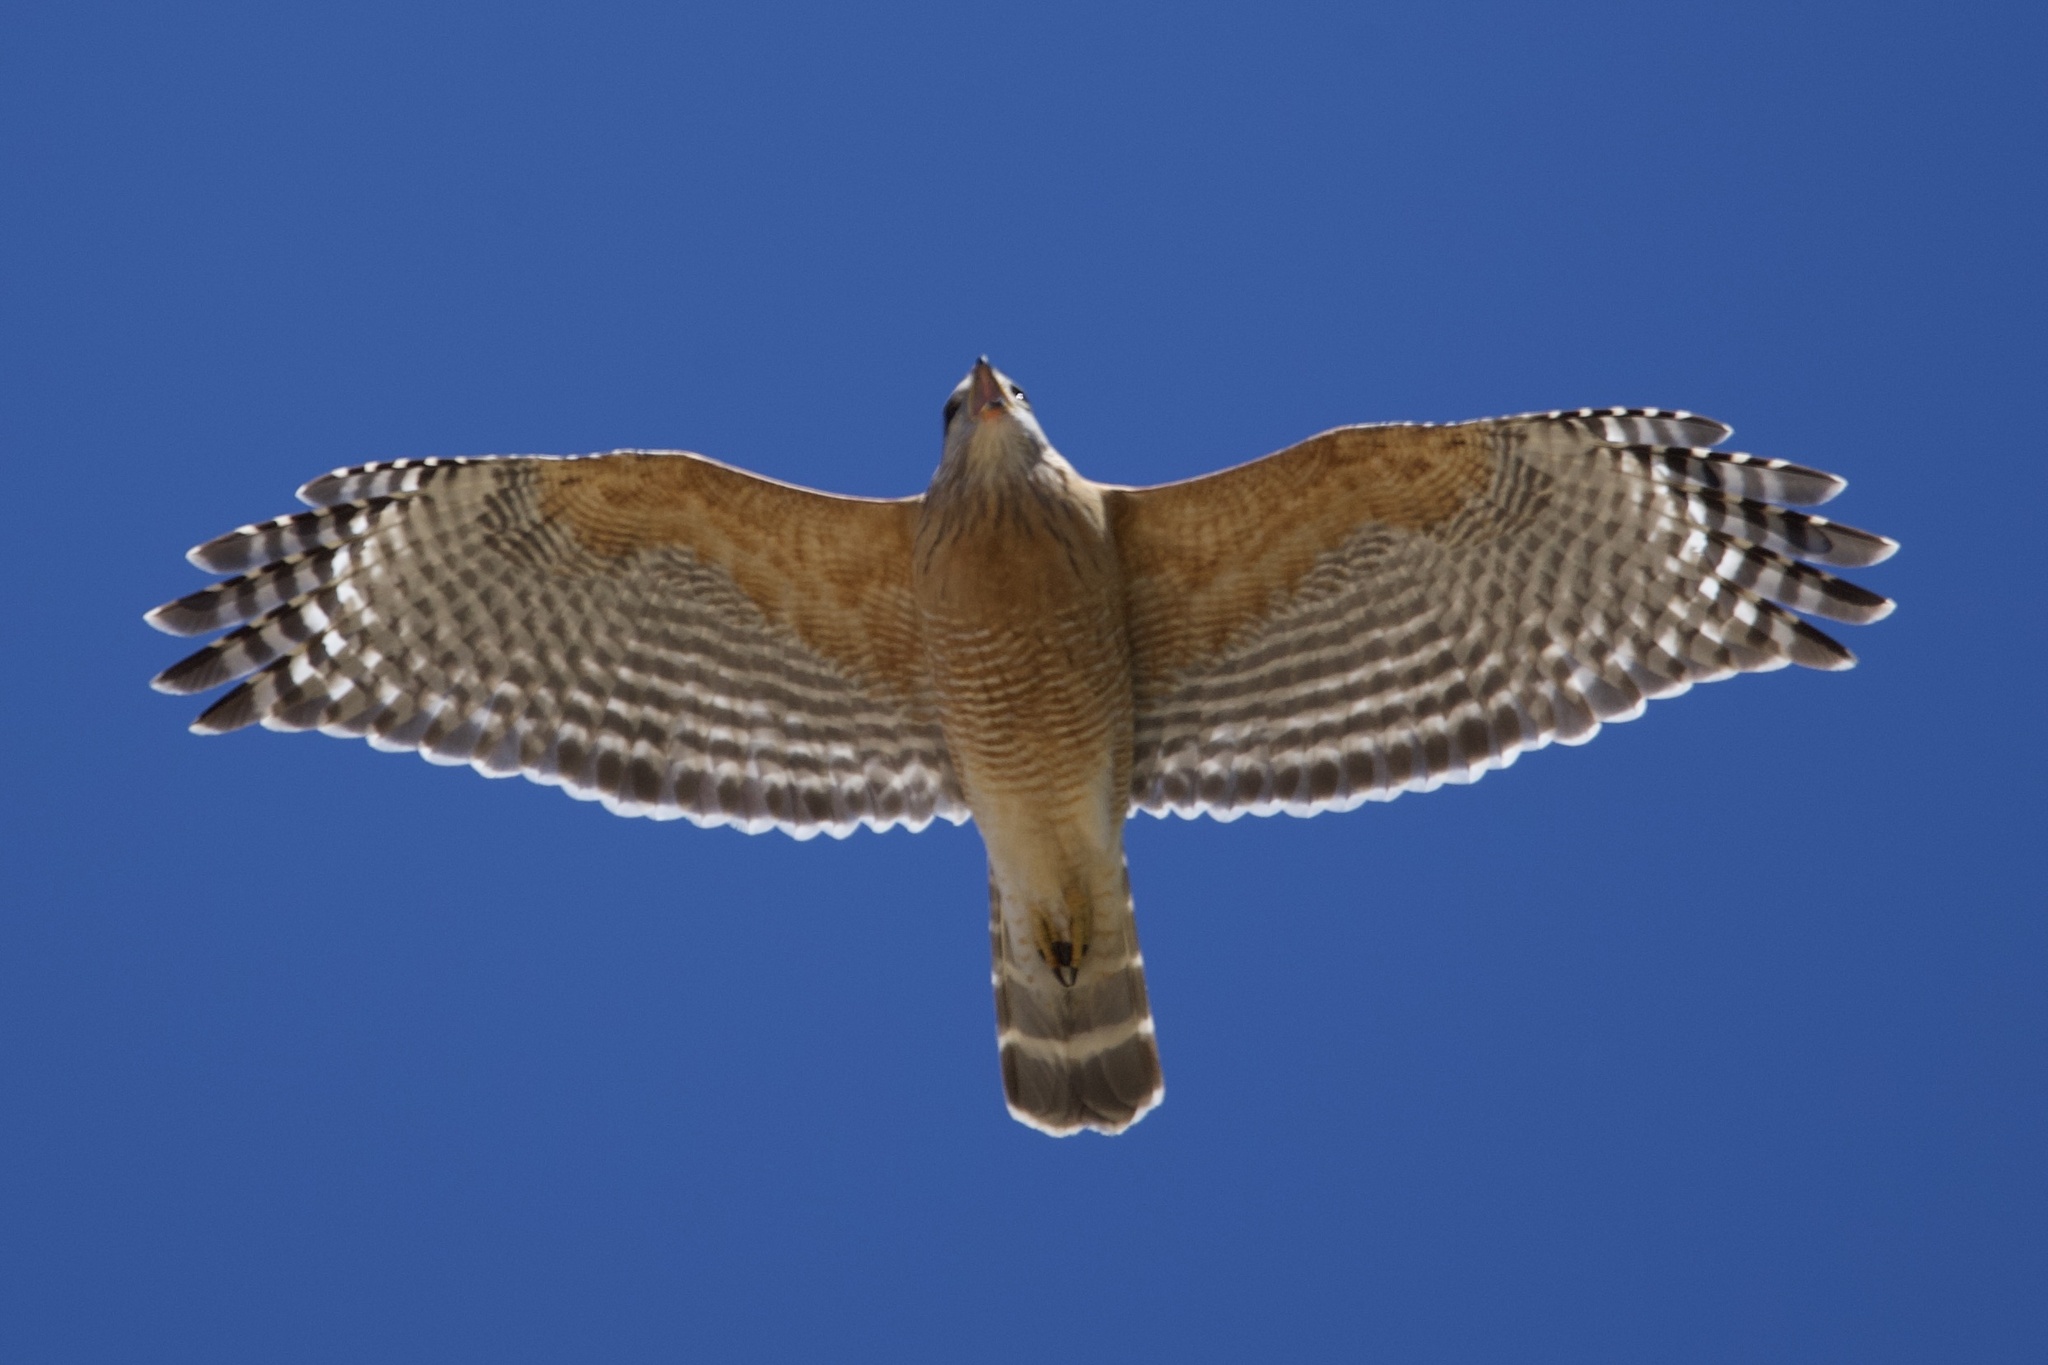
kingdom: Animalia
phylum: Chordata
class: Aves
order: Accipitriformes
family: Accipitridae
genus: Buteo
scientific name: Buteo lineatus
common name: Red-shouldered hawk
